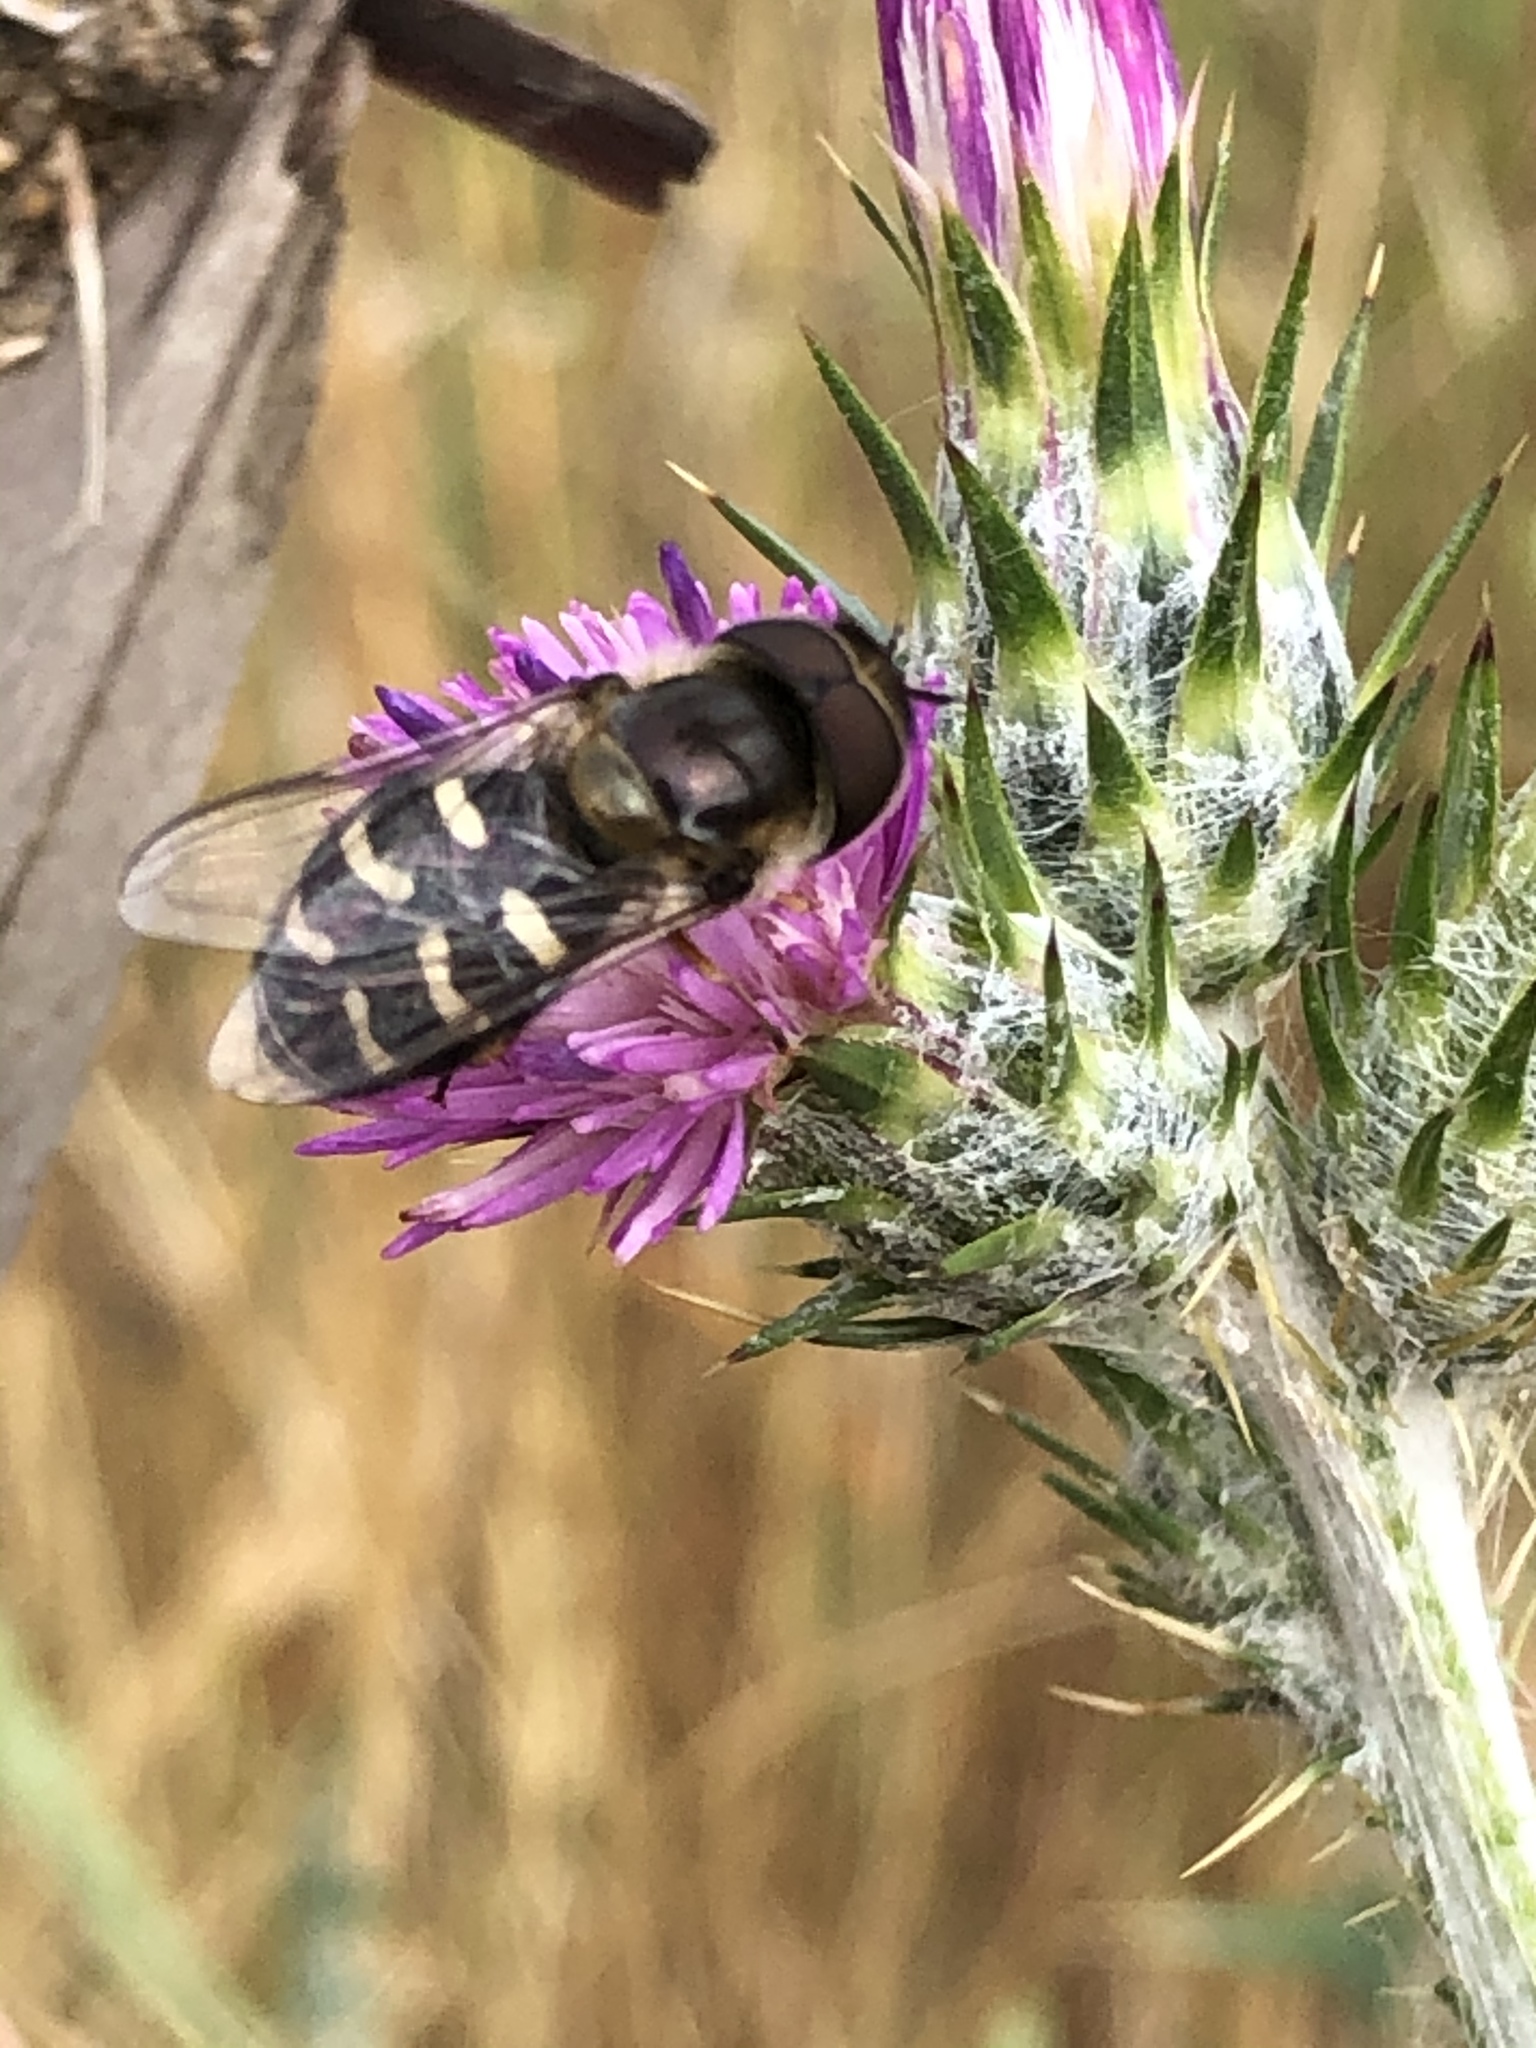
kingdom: Animalia
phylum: Arthropoda
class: Insecta
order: Diptera
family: Syrphidae
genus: Scaeva
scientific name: Scaeva affinis
